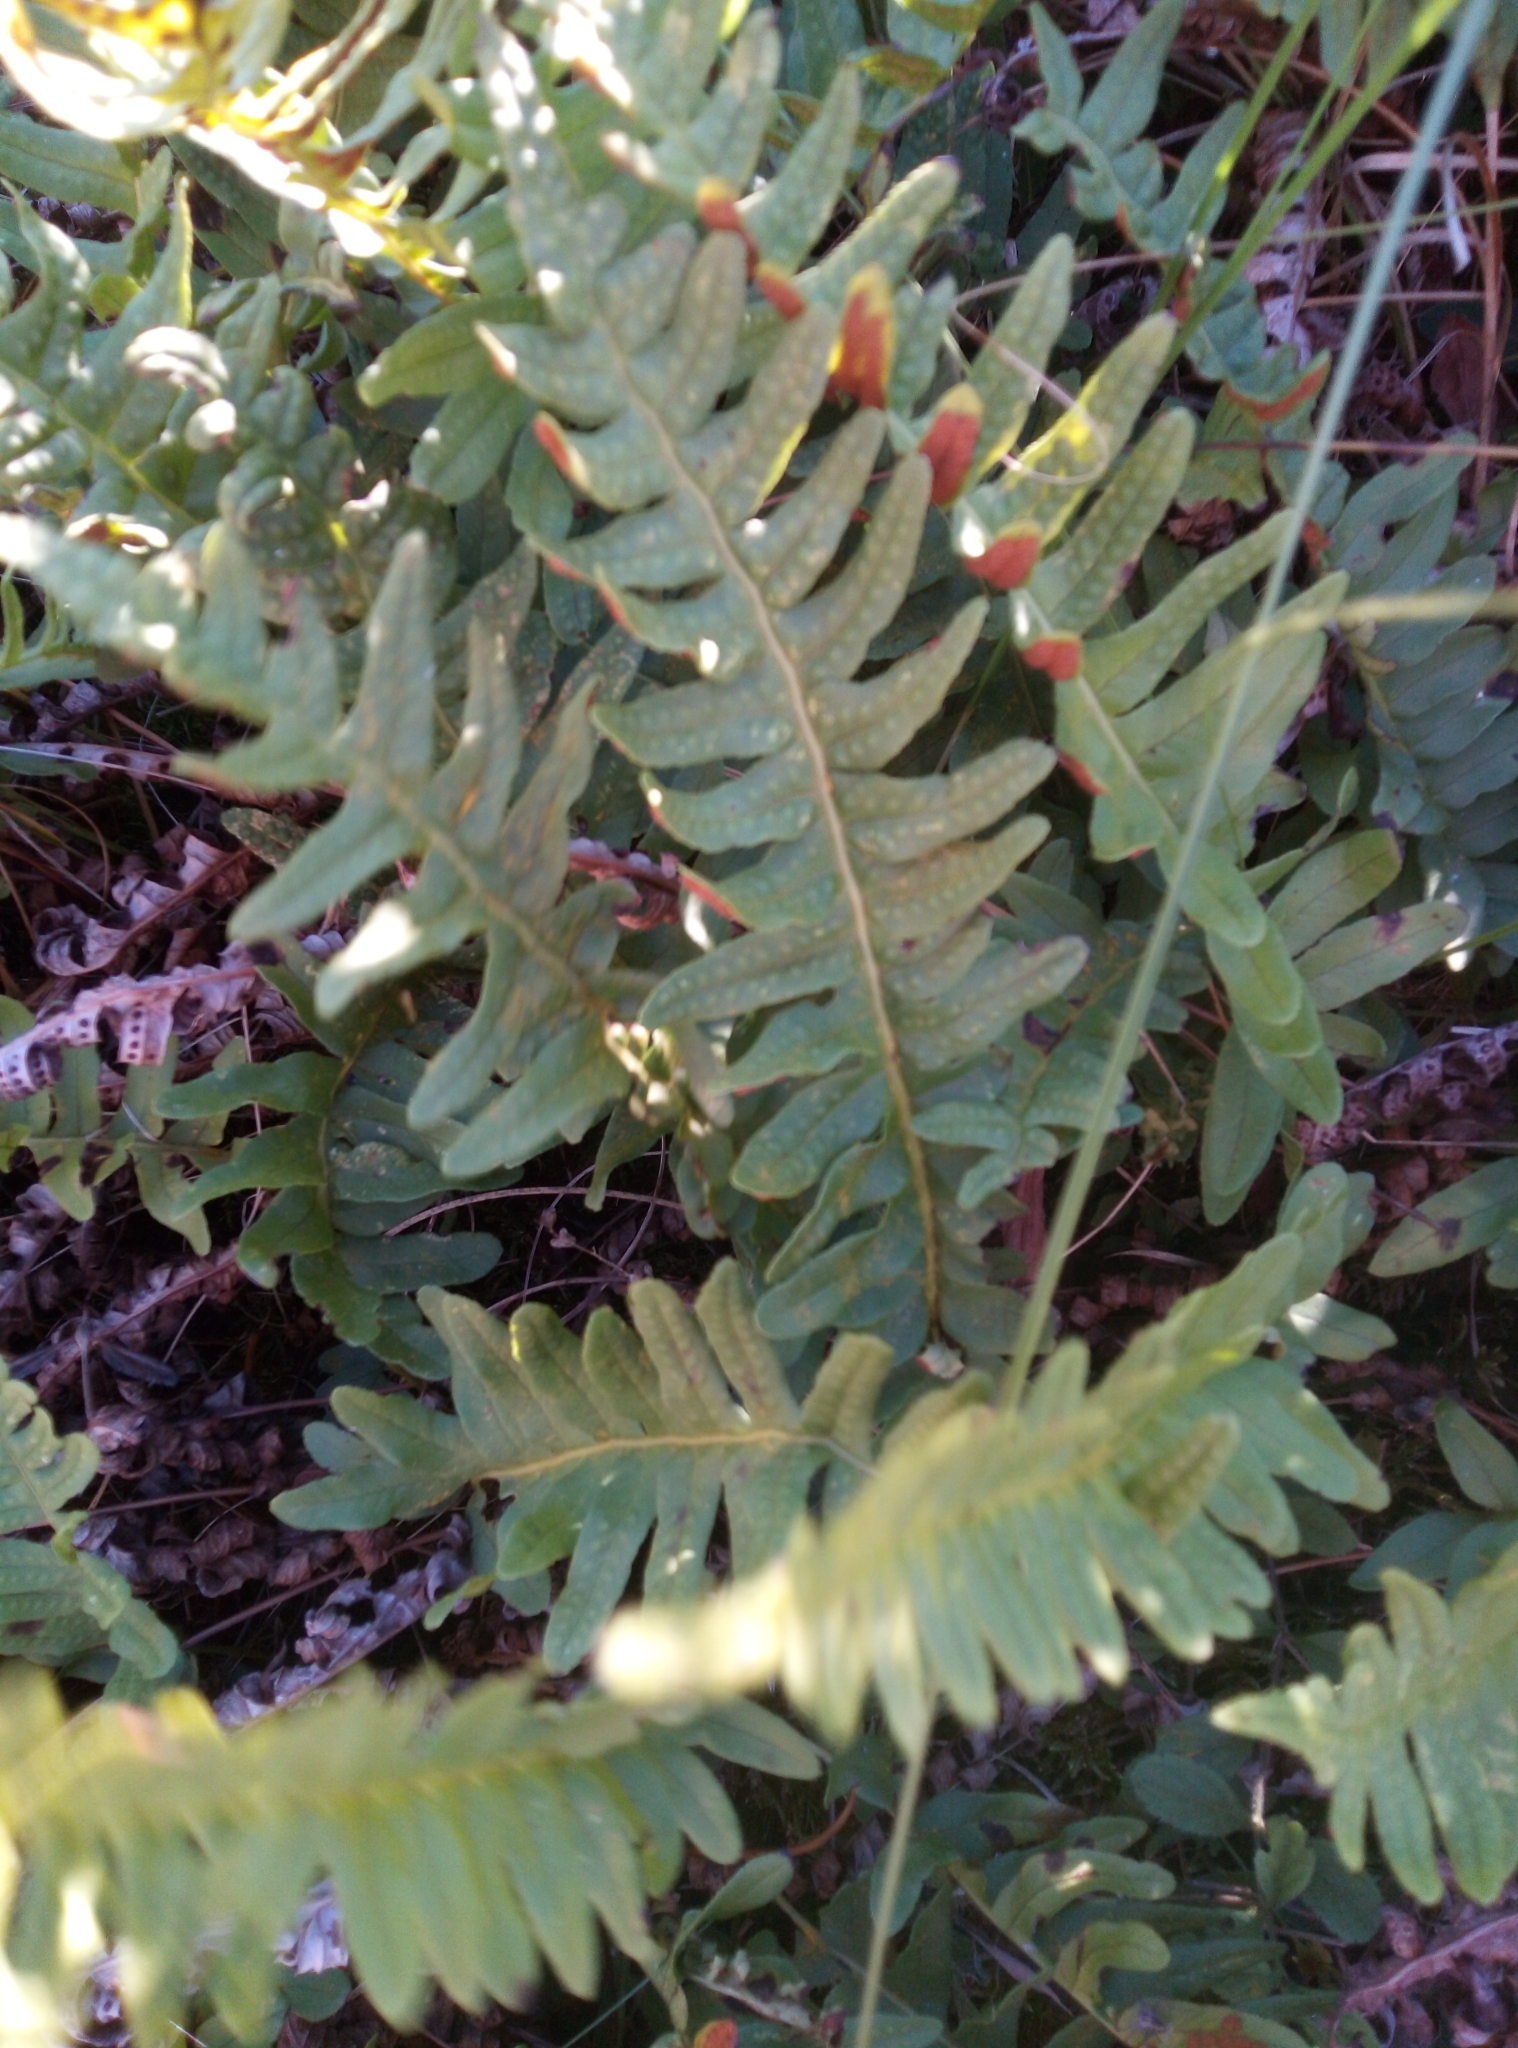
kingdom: Plantae
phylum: Tracheophyta
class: Polypodiopsida
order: Polypodiales
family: Polypodiaceae
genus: Polypodium
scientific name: Polypodium vulgare
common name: Common polypody
